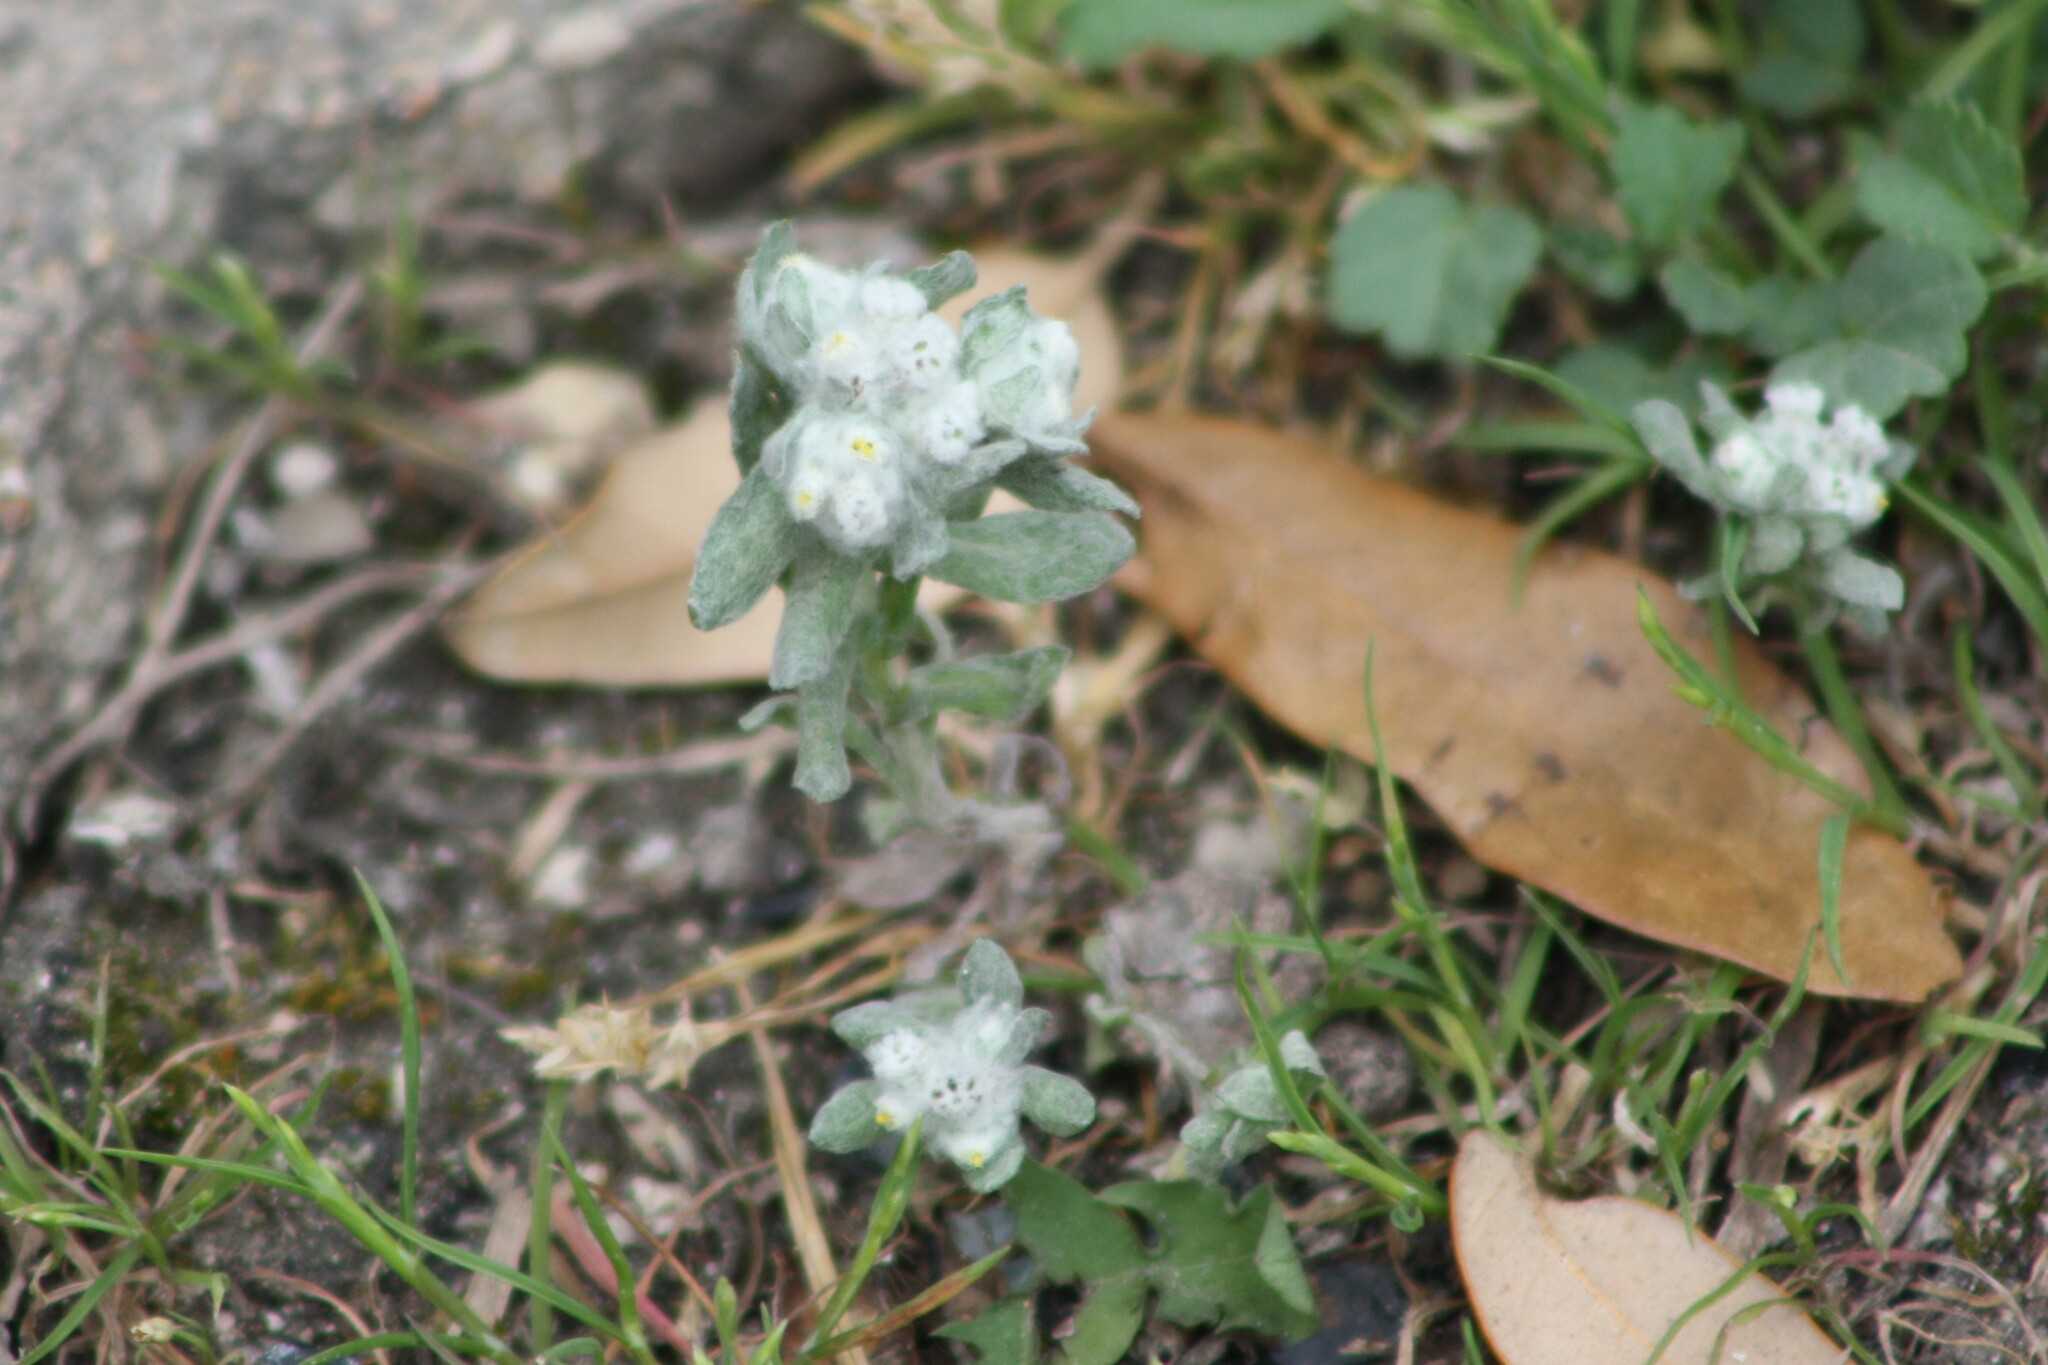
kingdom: Plantae
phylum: Tracheophyta
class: Magnoliopsida
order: Asterales
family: Asteraceae
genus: Diaperia
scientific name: Diaperia verna
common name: Many-stem rabbit-tobacco
